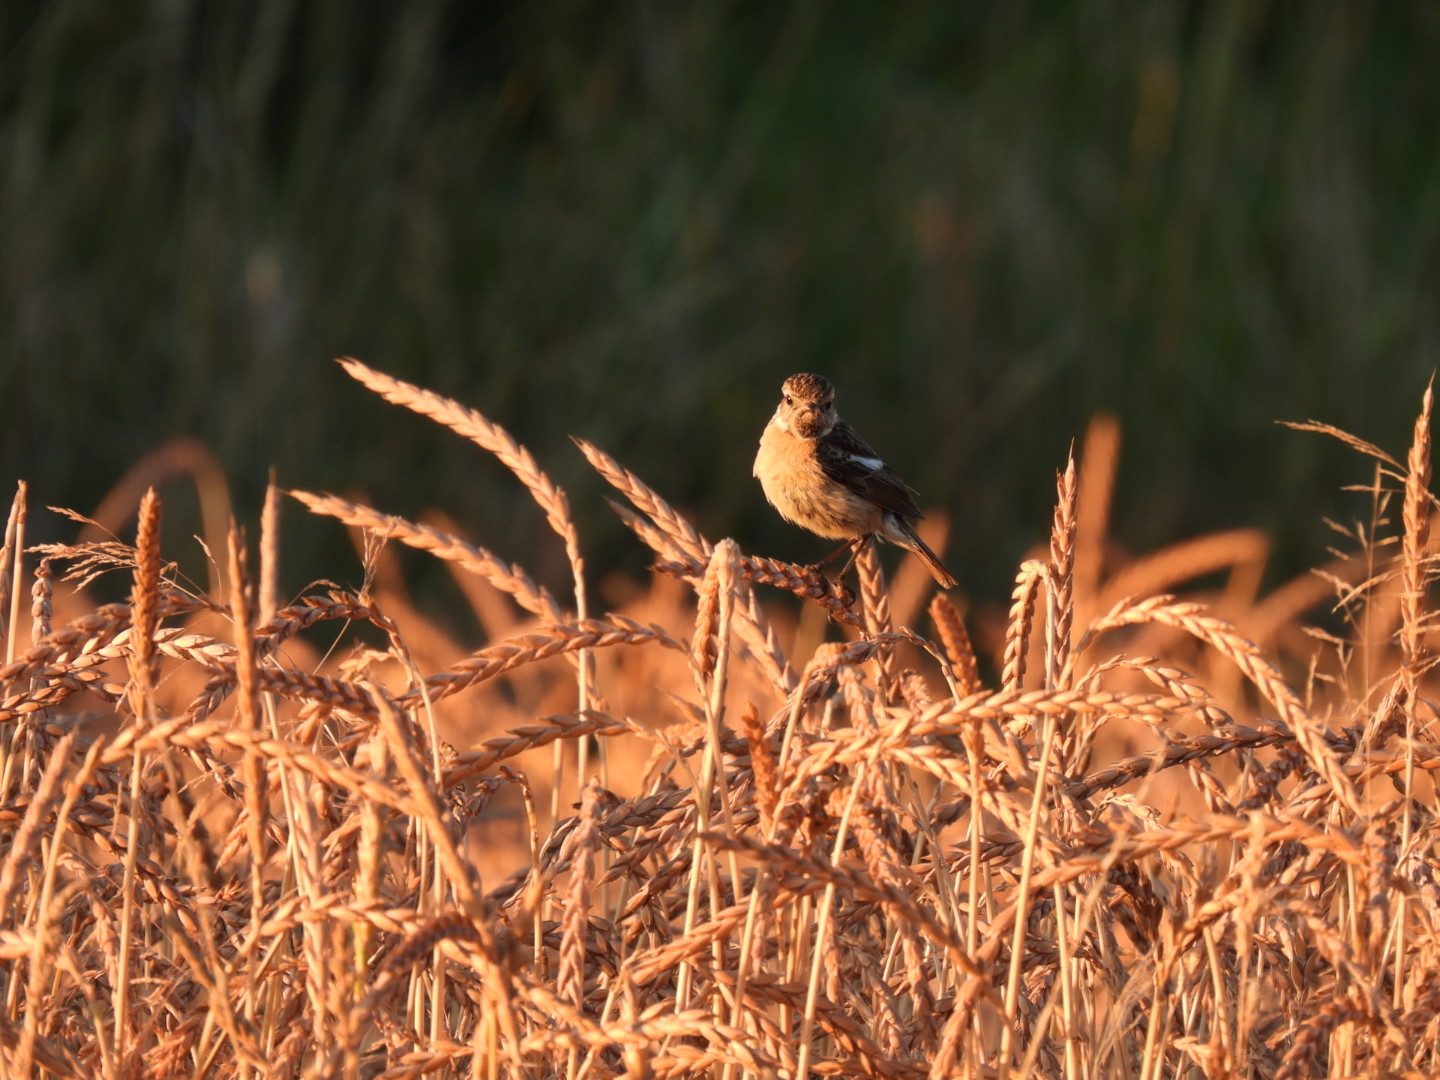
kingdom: Animalia
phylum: Chordata
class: Aves
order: Passeriformes
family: Muscicapidae
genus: Saxicola
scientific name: Saxicola rubicola
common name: European stonechat
